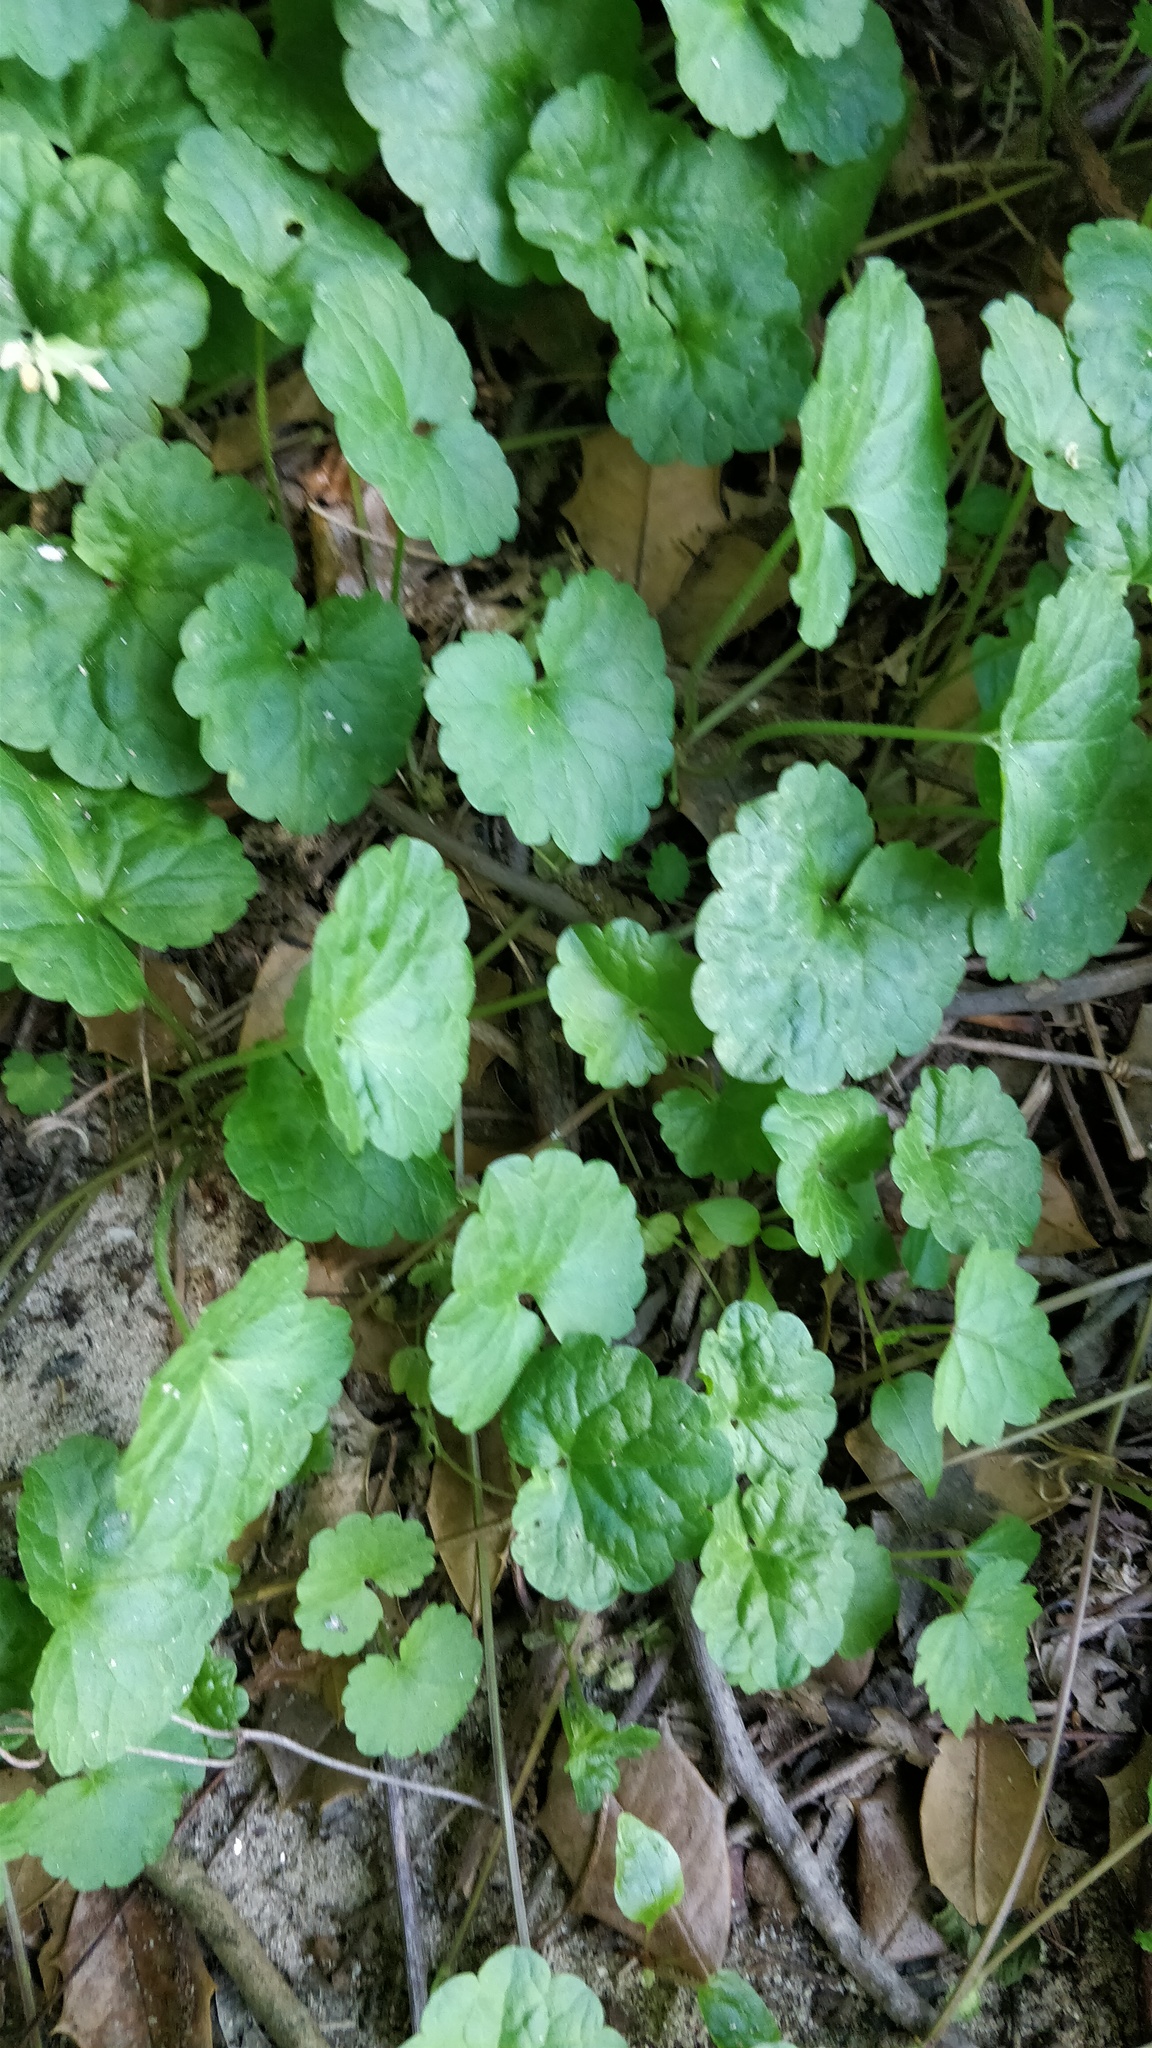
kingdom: Plantae
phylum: Tracheophyta
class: Magnoliopsida
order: Lamiales
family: Lamiaceae
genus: Glechoma
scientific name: Glechoma hederacea
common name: Ground ivy
